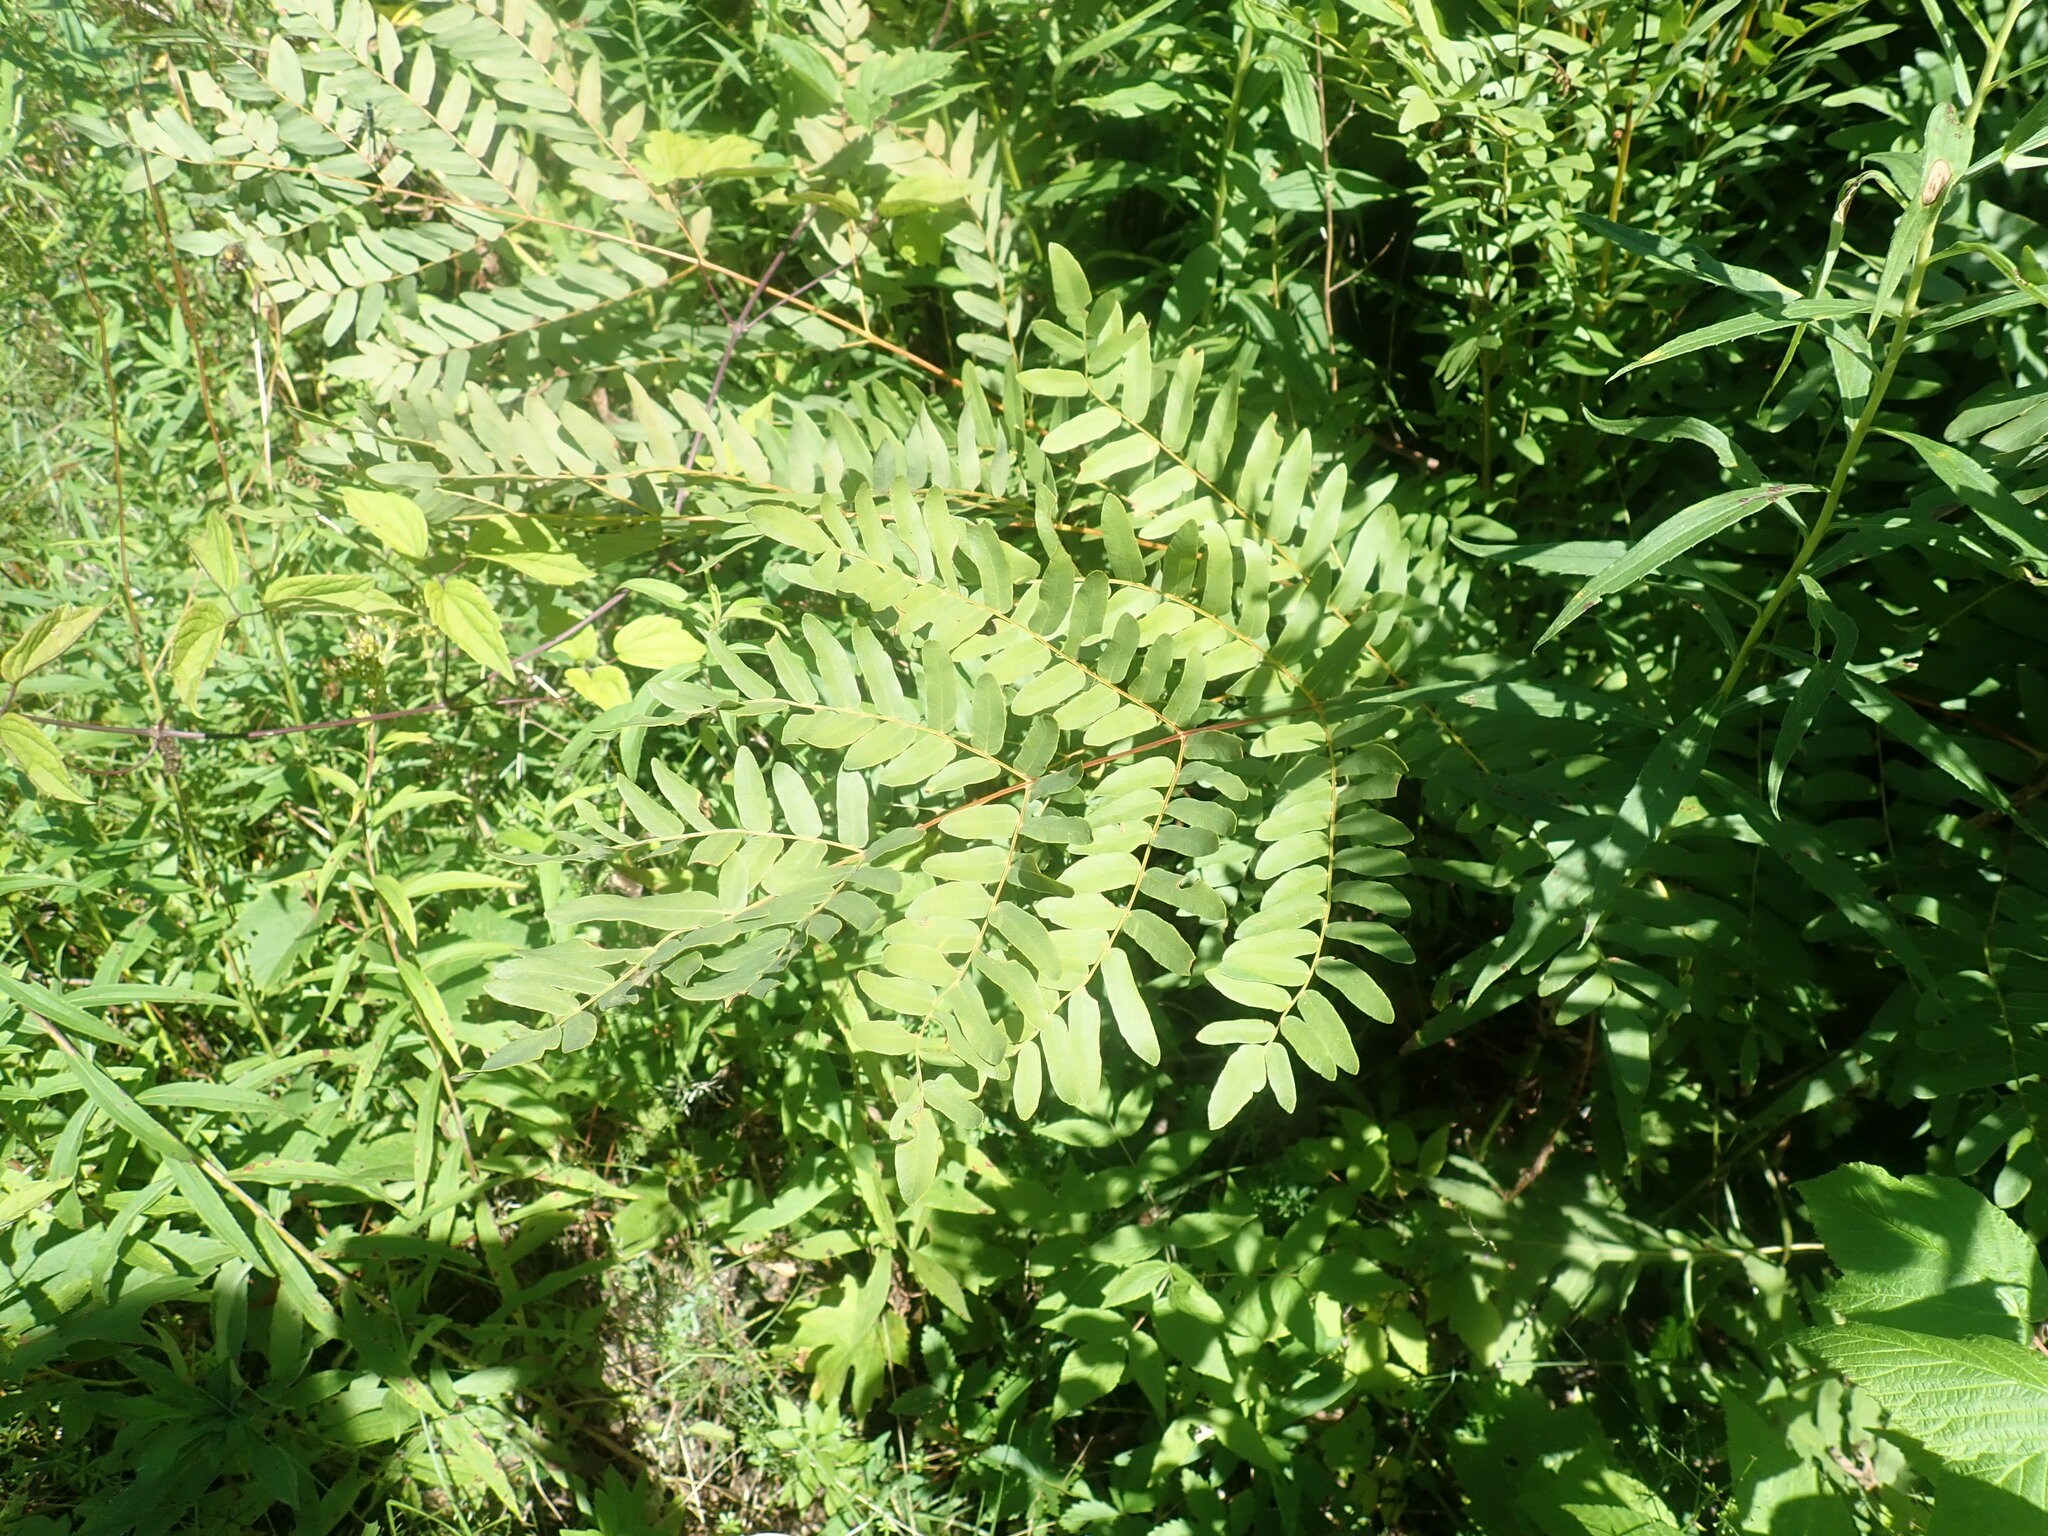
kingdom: Plantae
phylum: Tracheophyta
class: Polypodiopsida
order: Osmundales
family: Osmundaceae
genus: Osmunda
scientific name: Osmunda spectabilis
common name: American royal fern
